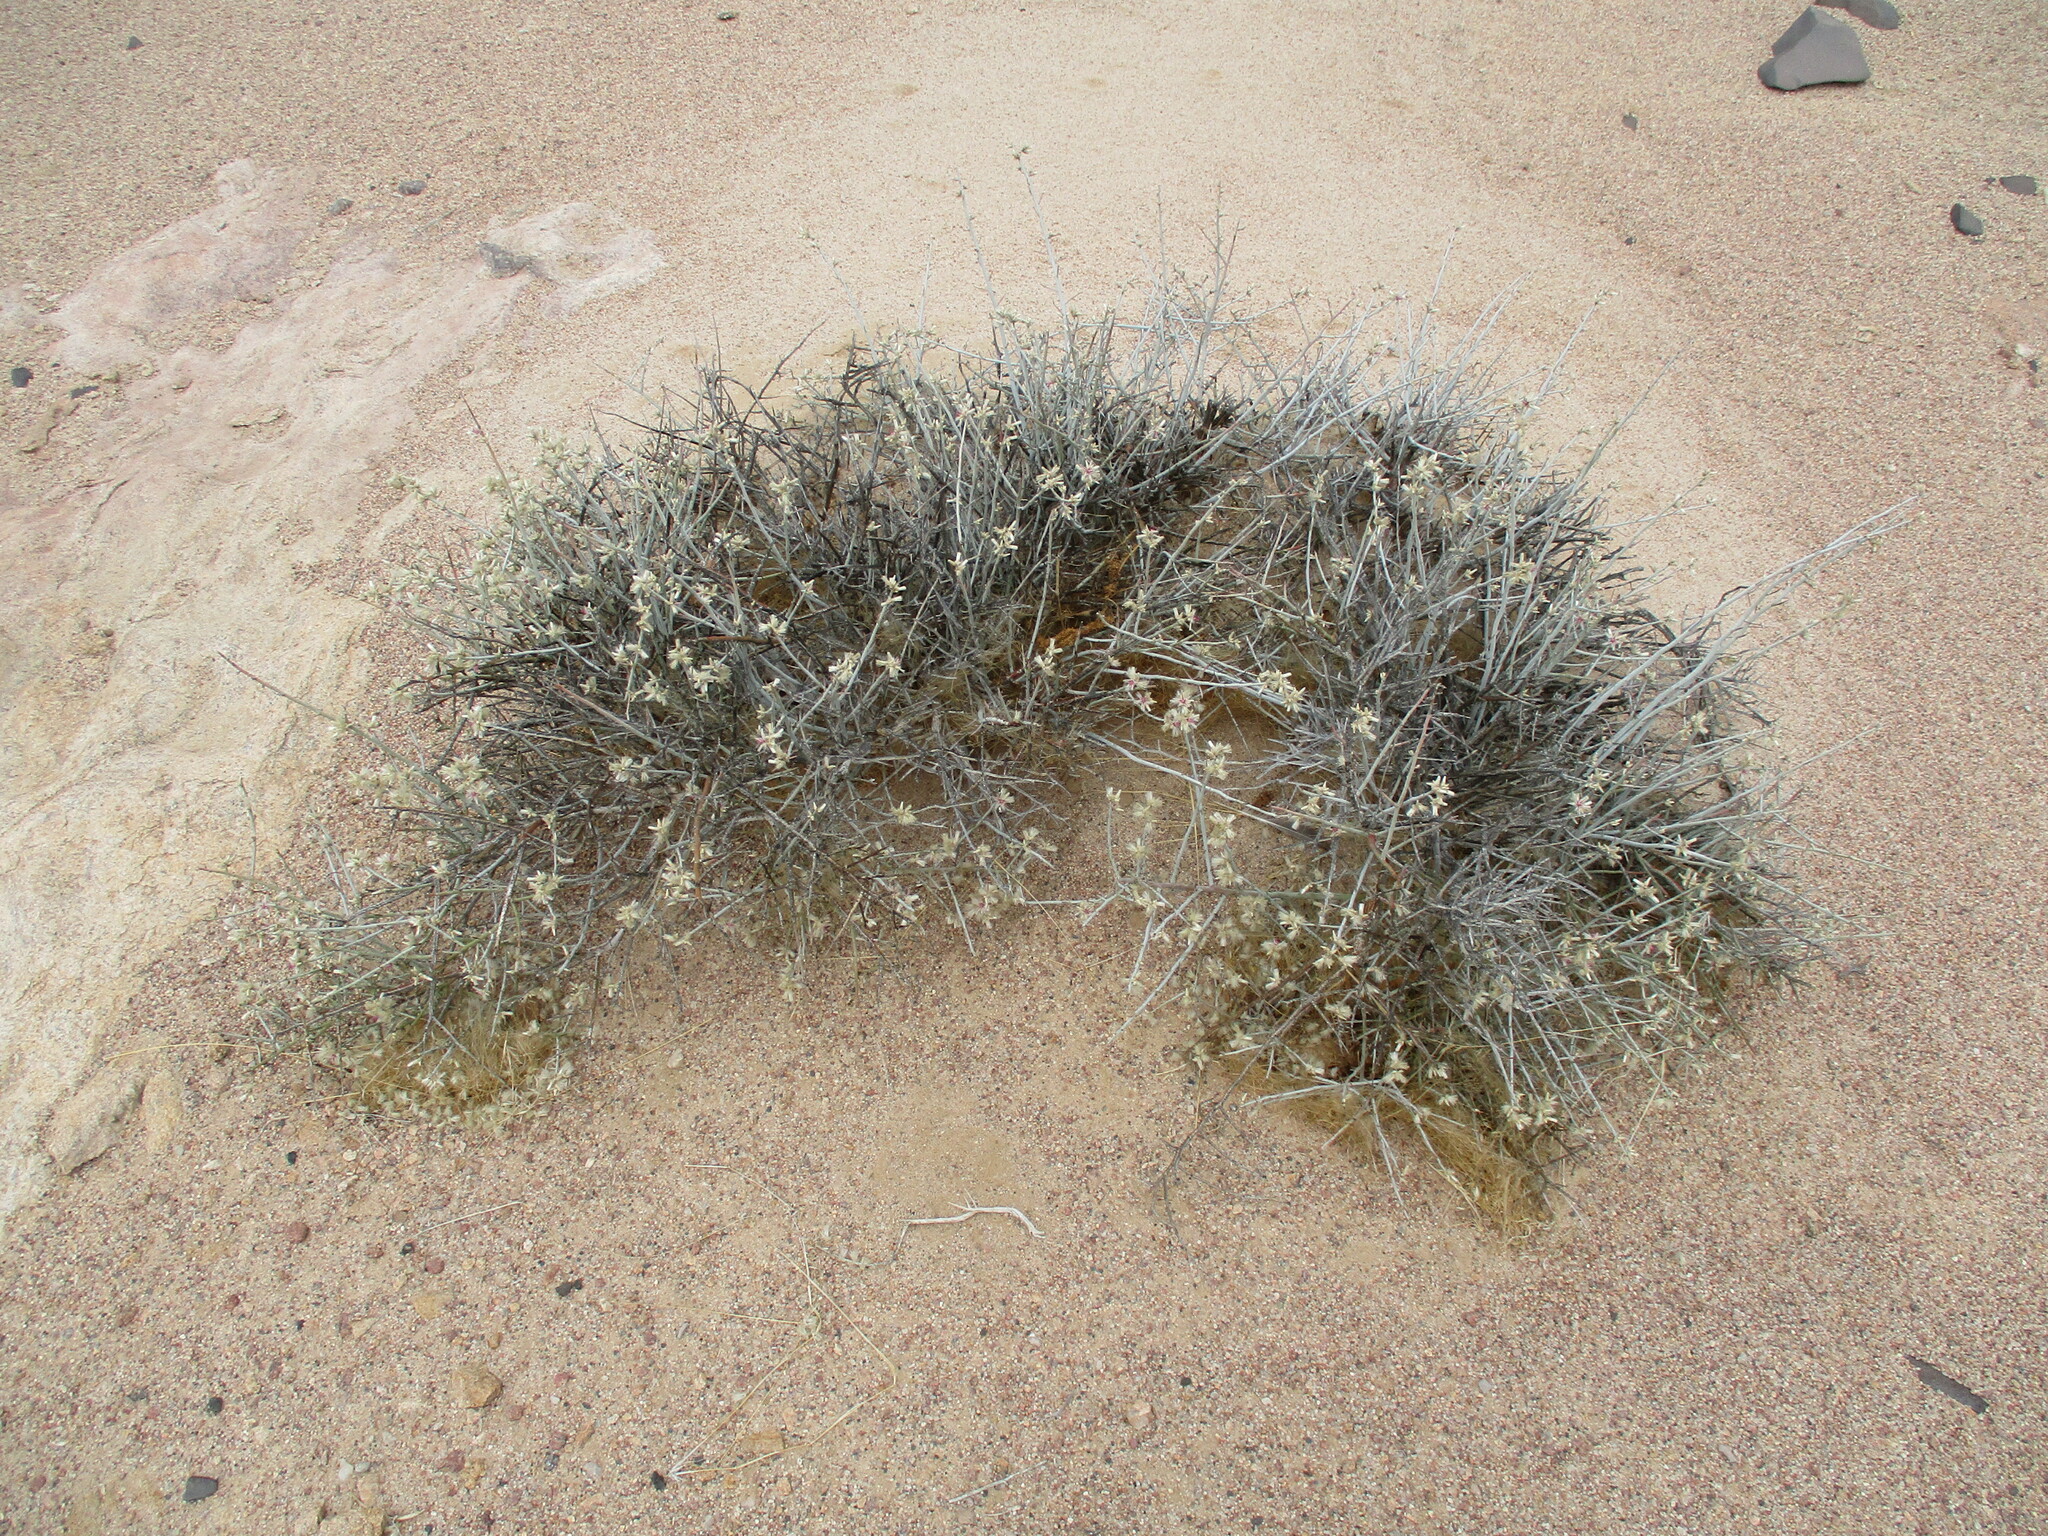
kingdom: Plantae
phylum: Tracheophyta
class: Magnoliopsida
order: Caryophyllales
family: Amaranthaceae
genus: Calicorema
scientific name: Calicorema capitata
